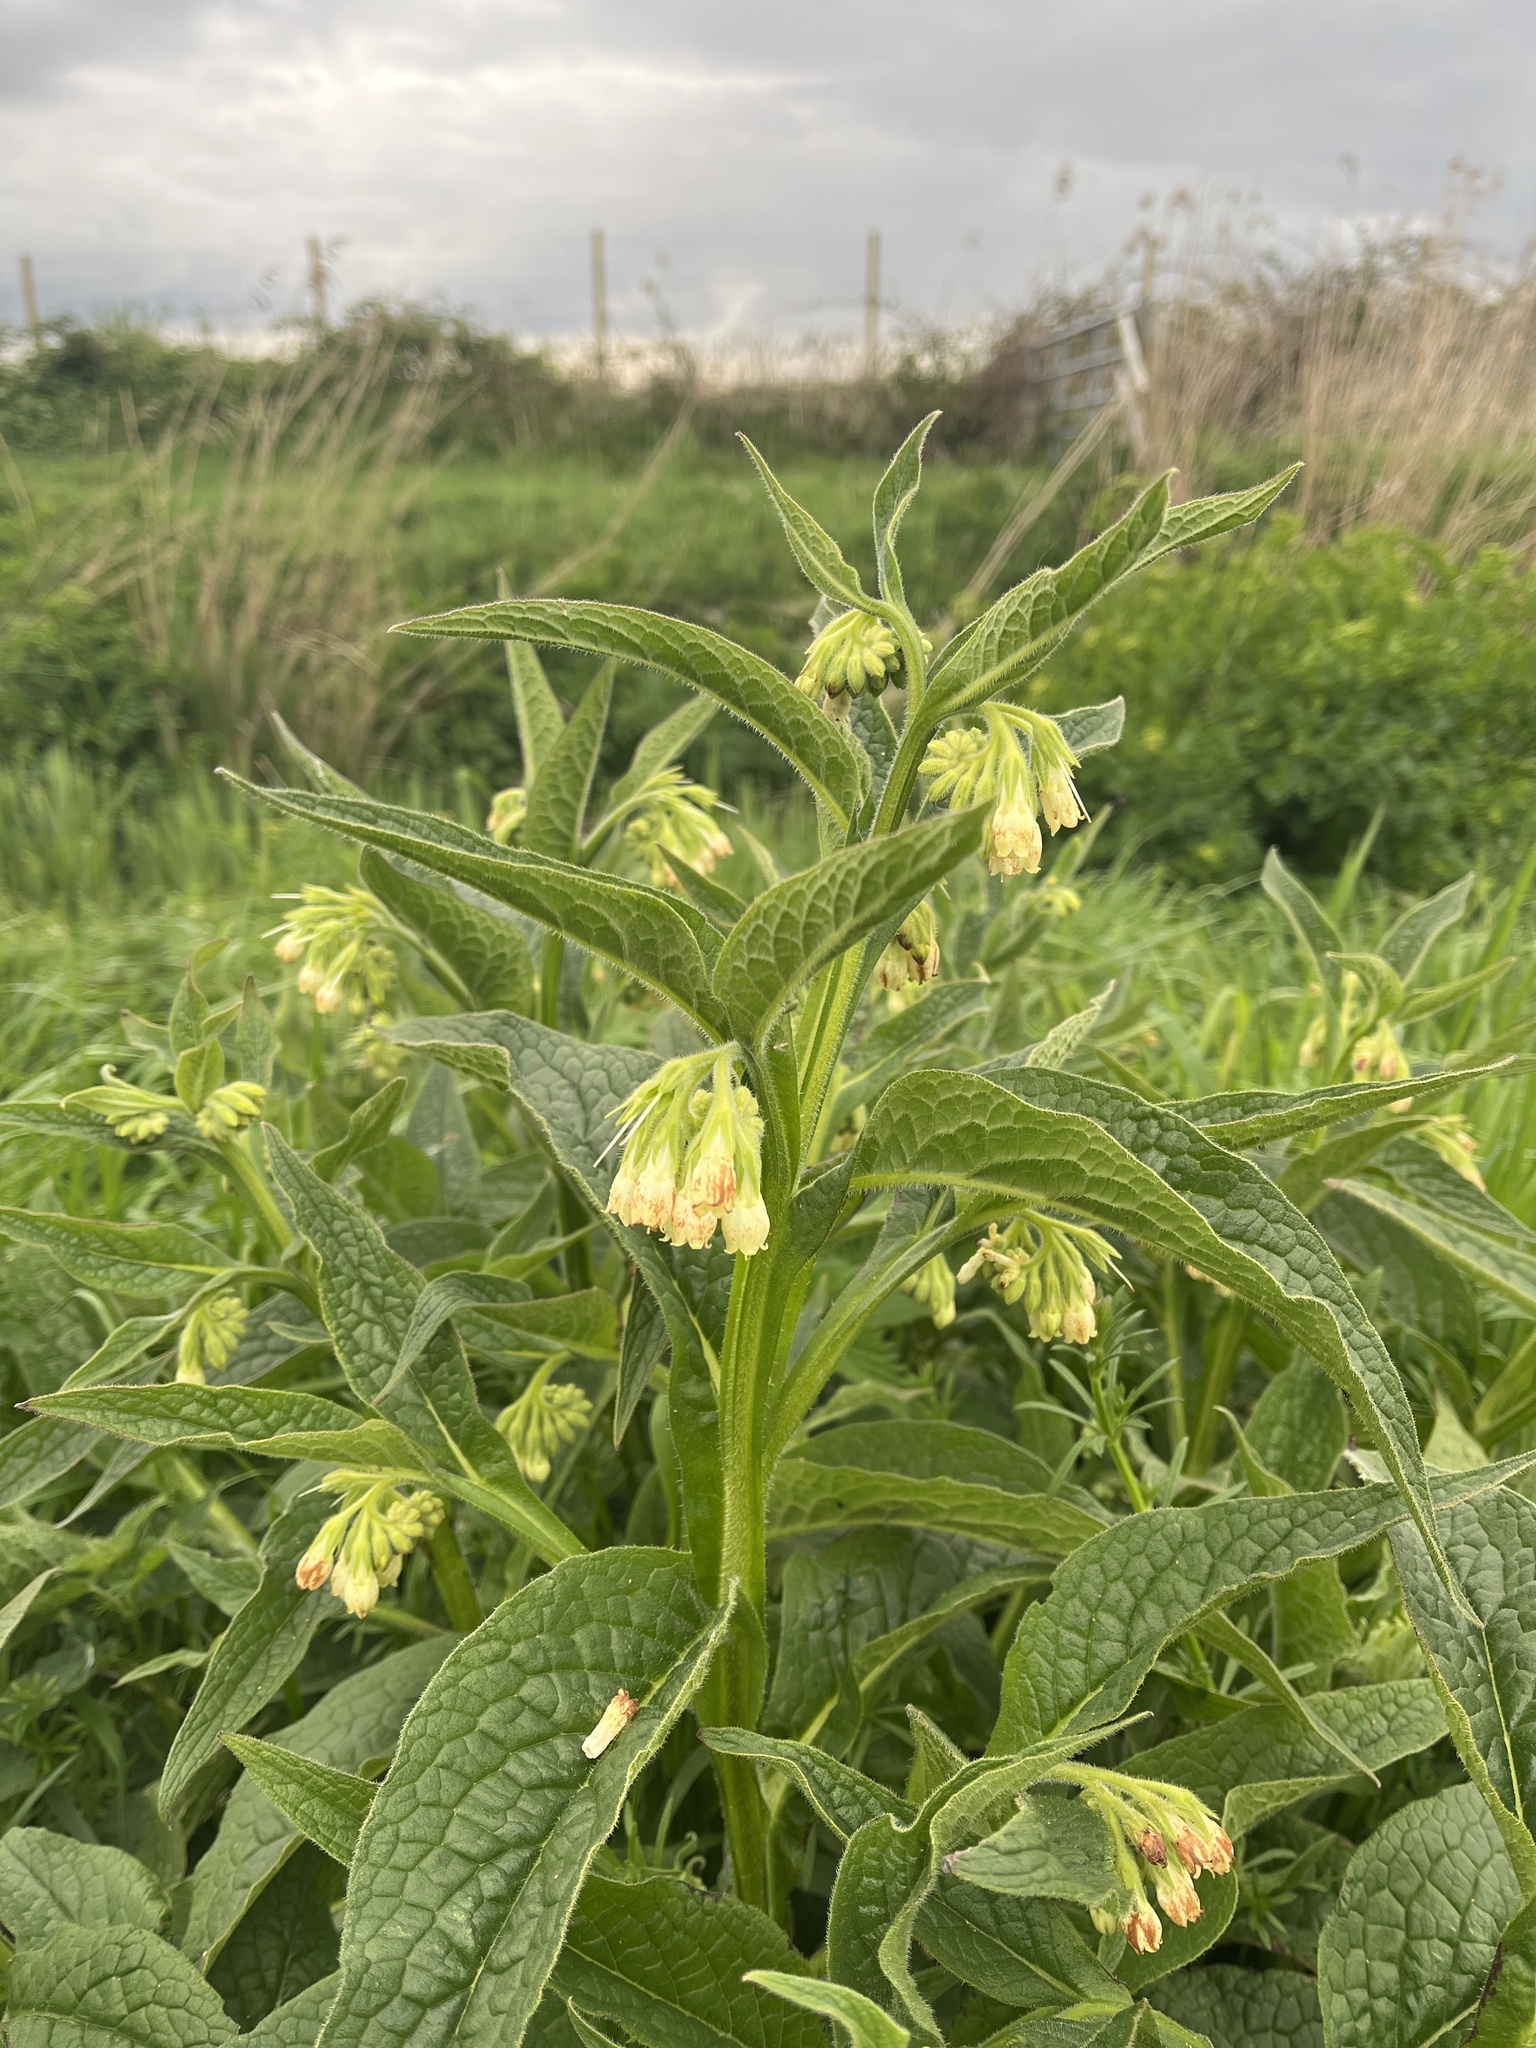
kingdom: Plantae
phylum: Tracheophyta
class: Magnoliopsida
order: Boraginales
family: Boraginaceae
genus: Symphytum
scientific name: Symphytum officinale
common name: Common comfrey
